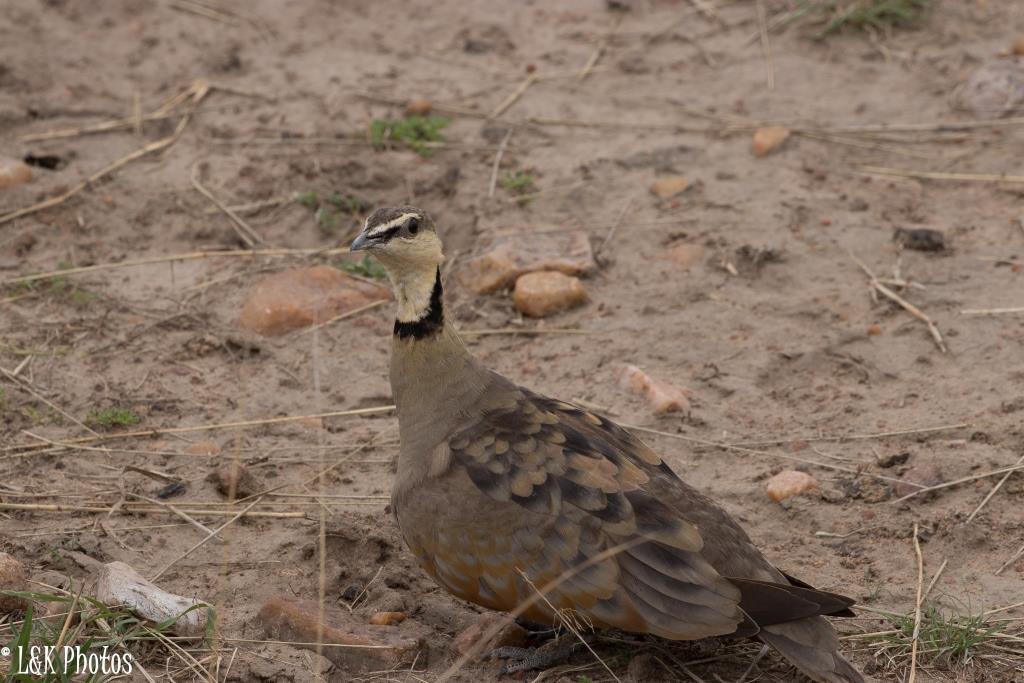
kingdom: Animalia
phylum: Chordata
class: Aves
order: Pteroclidiformes
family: Pteroclididae
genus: Pterocles
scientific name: Pterocles gutturalis
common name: Yellow-throated sandgrouse
